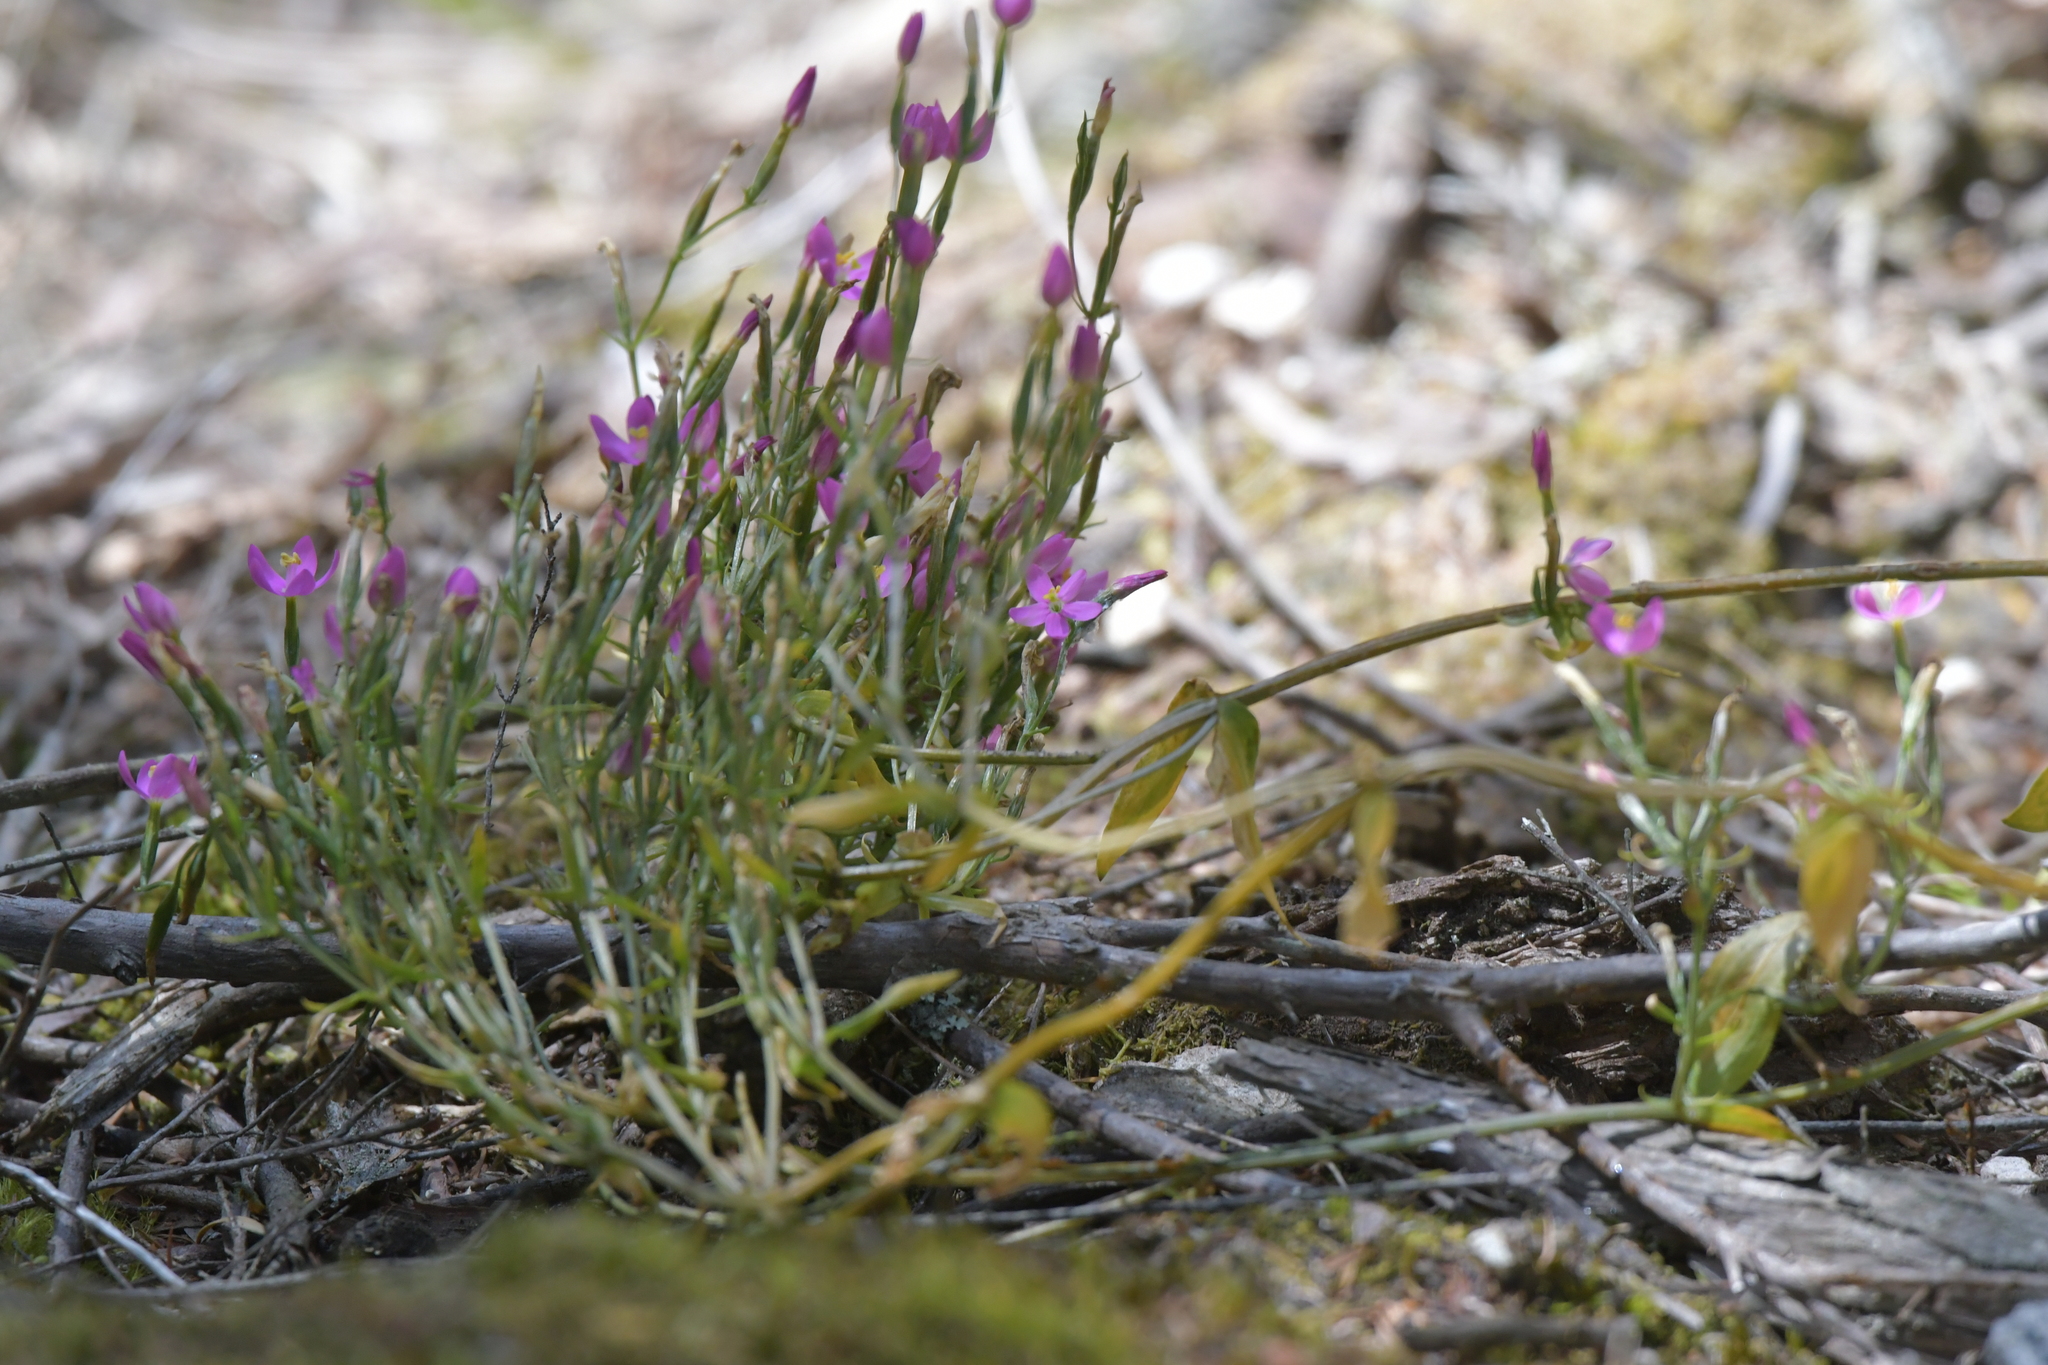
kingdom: Plantae
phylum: Tracheophyta
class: Magnoliopsida
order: Gentianales
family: Gentianaceae
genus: Centaurium
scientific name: Centaurium erythraea
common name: Common centaury
